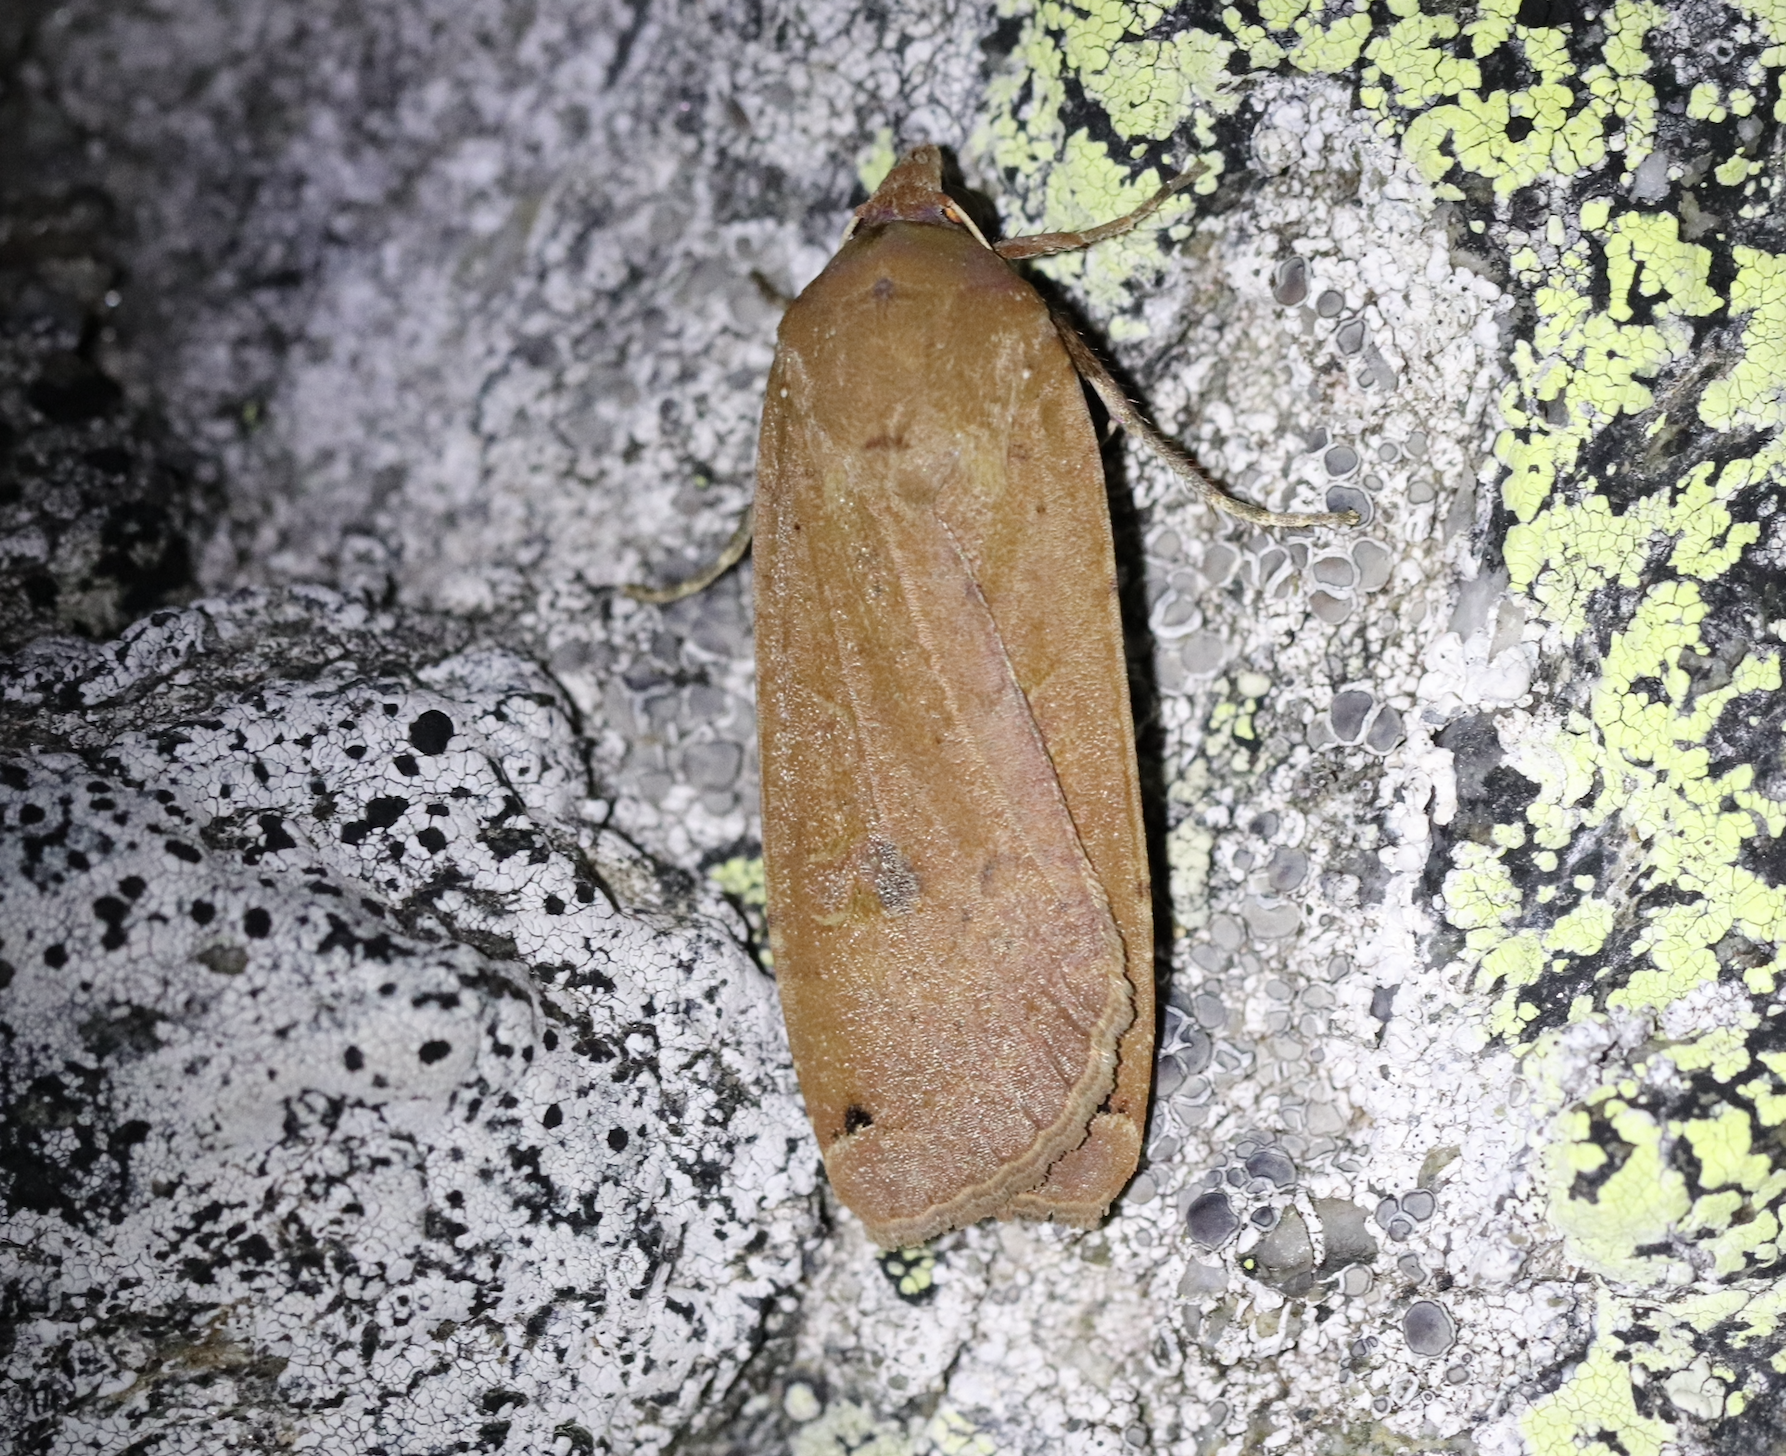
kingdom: Animalia
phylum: Arthropoda
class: Insecta
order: Lepidoptera
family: Noctuidae
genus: Noctua
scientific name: Noctua pronuba
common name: Large yellow underwing
